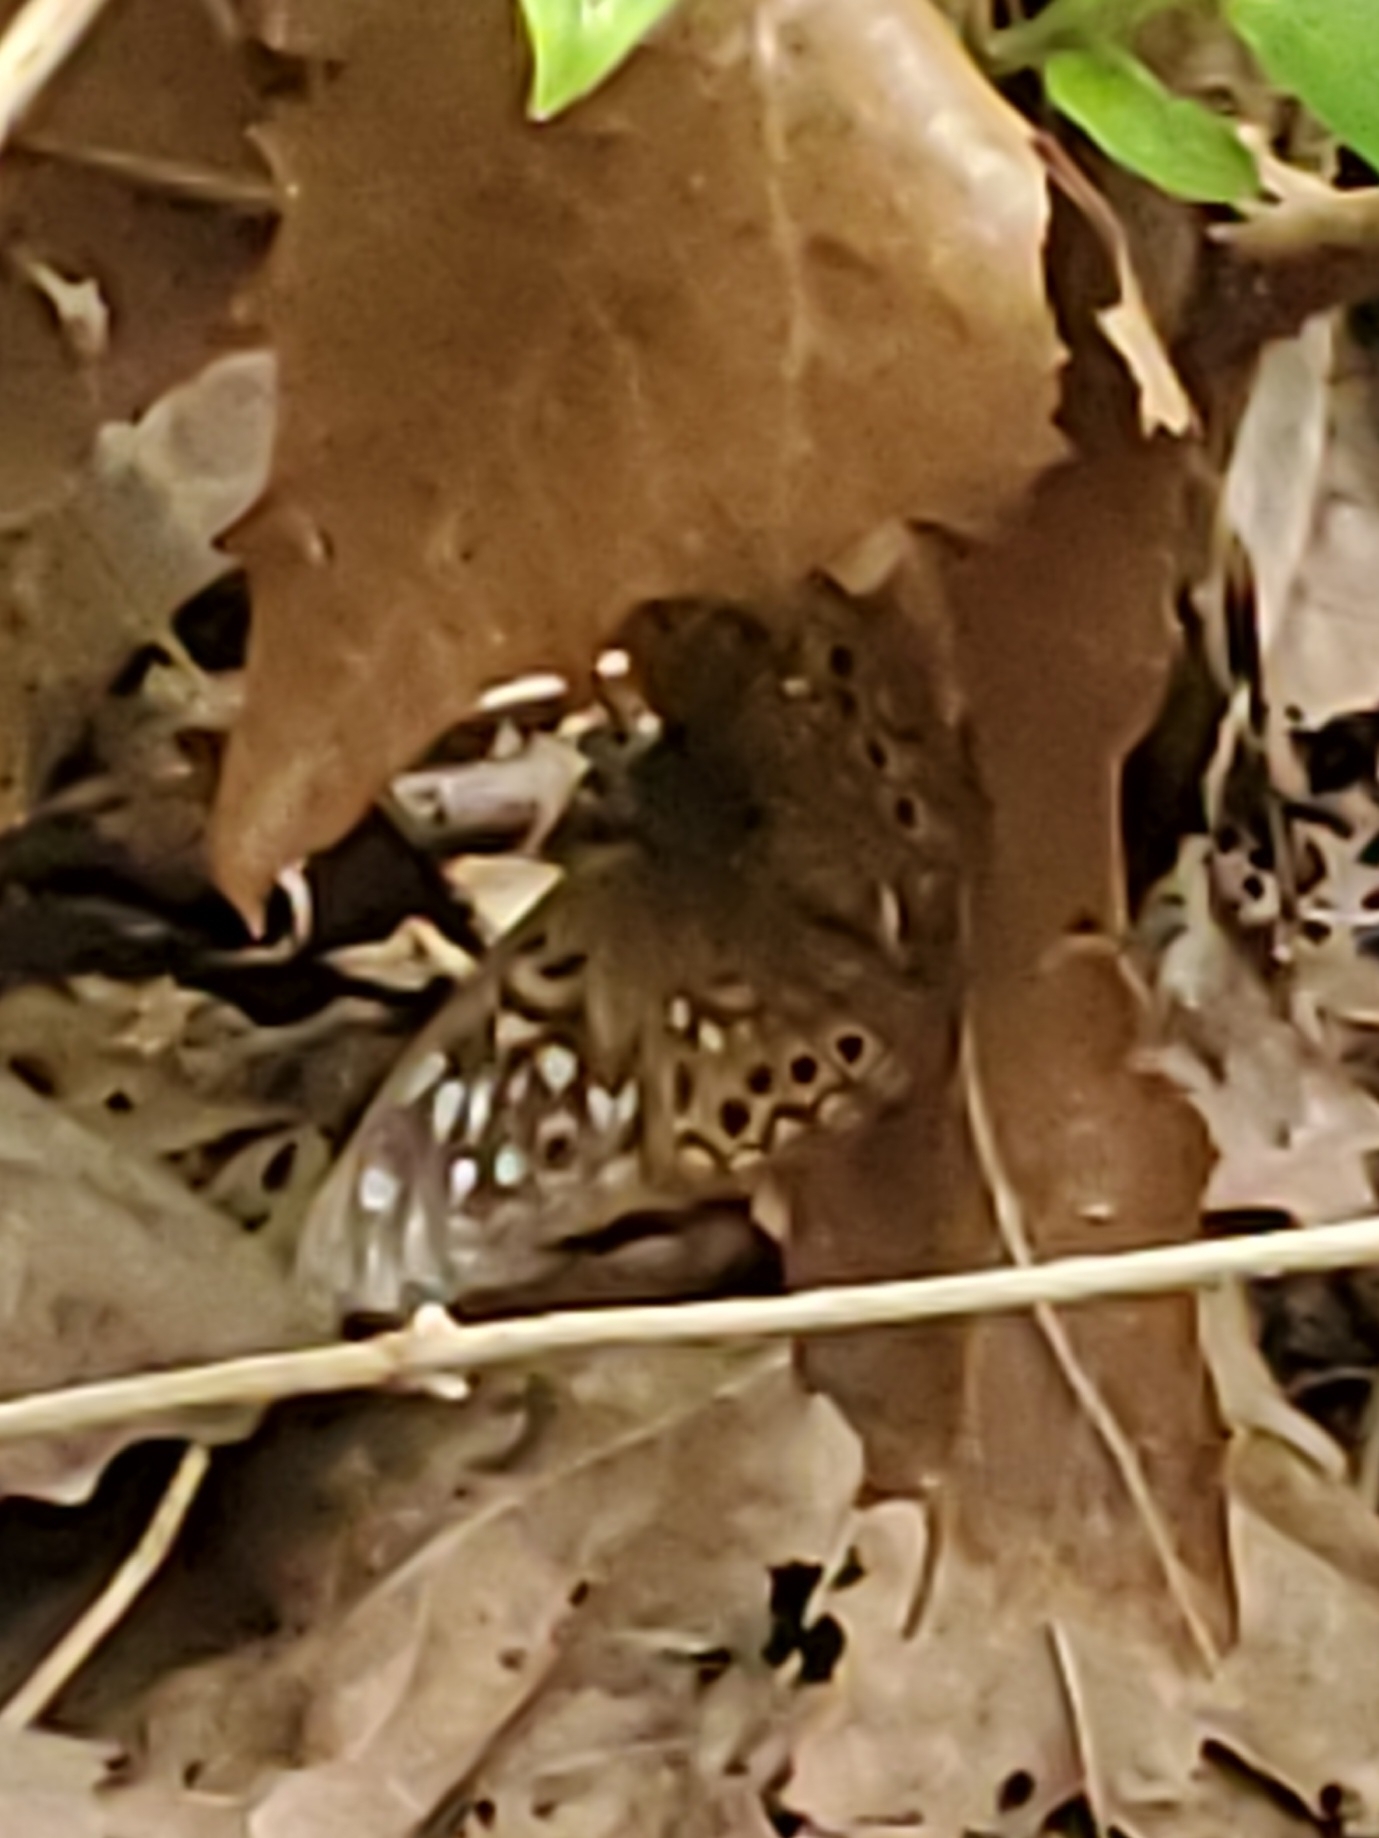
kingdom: Animalia
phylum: Arthropoda
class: Insecta
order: Lepidoptera
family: Nymphalidae
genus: Asterocampa
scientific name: Asterocampa celtis
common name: Hackberry emperor
